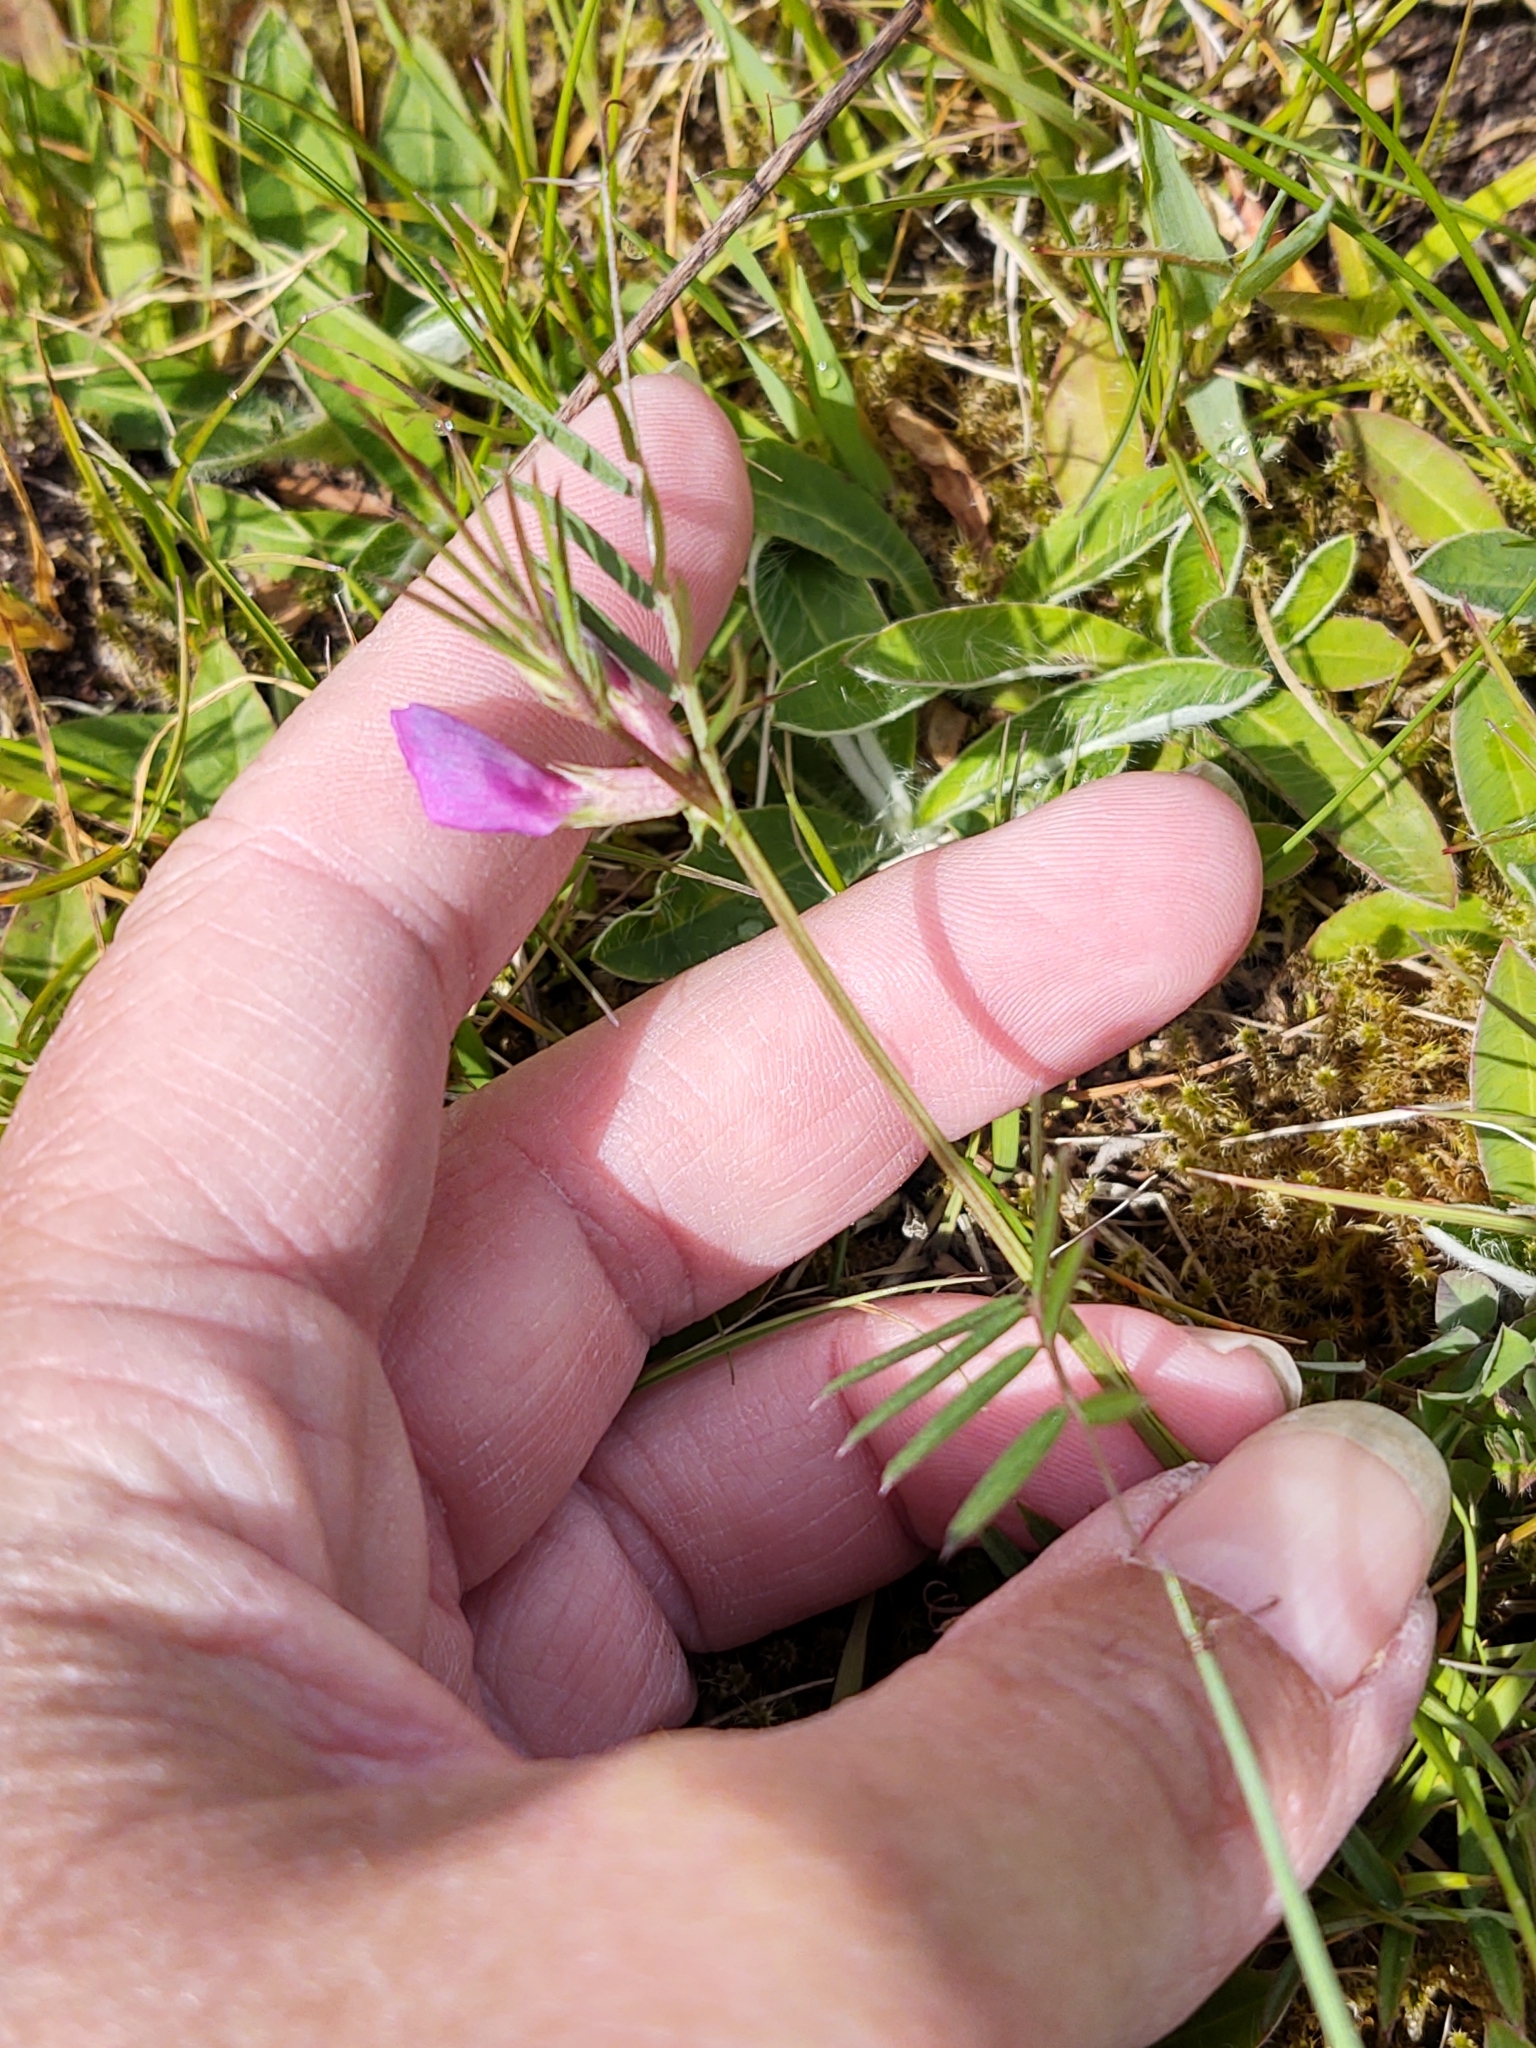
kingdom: Plantae
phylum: Tracheophyta
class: Magnoliopsida
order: Fabales
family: Fabaceae
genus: Vicia
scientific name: Vicia sativa
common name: Garden vetch
